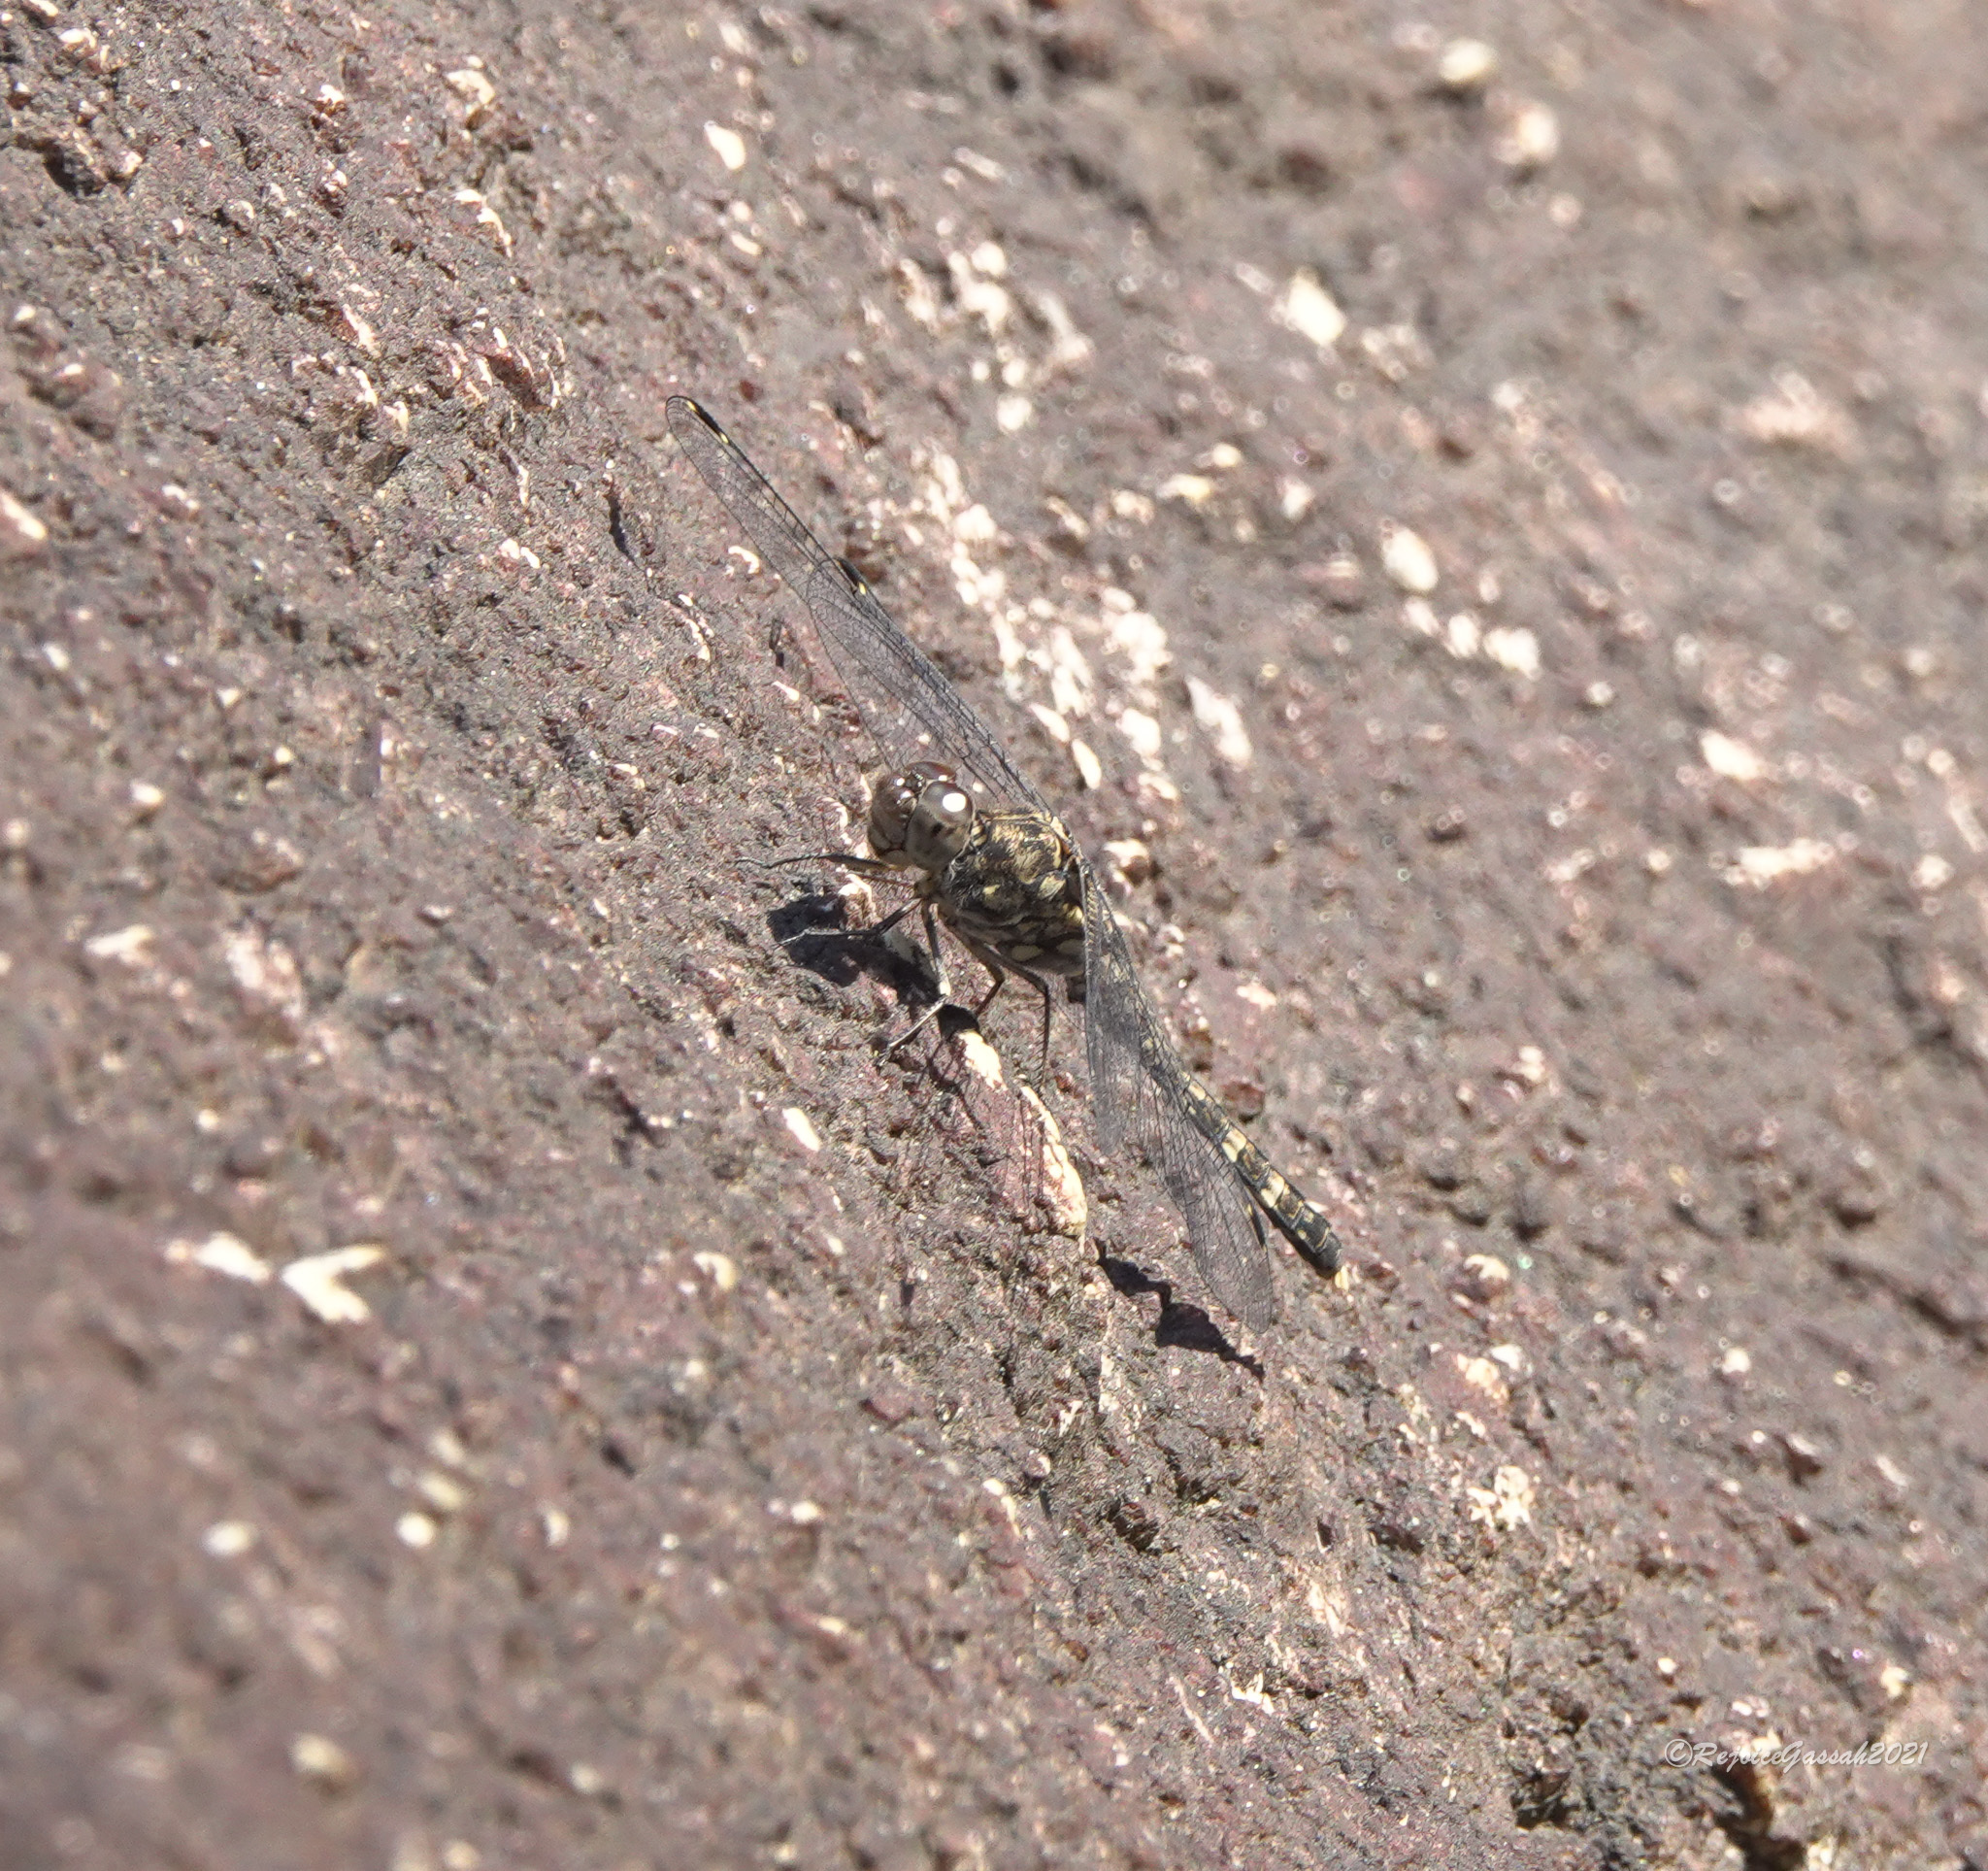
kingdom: Animalia
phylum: Arthropoda
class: Insecta
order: Odonata
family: Libellulidae
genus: Bradinopyga
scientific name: Bradinopyga geminata
